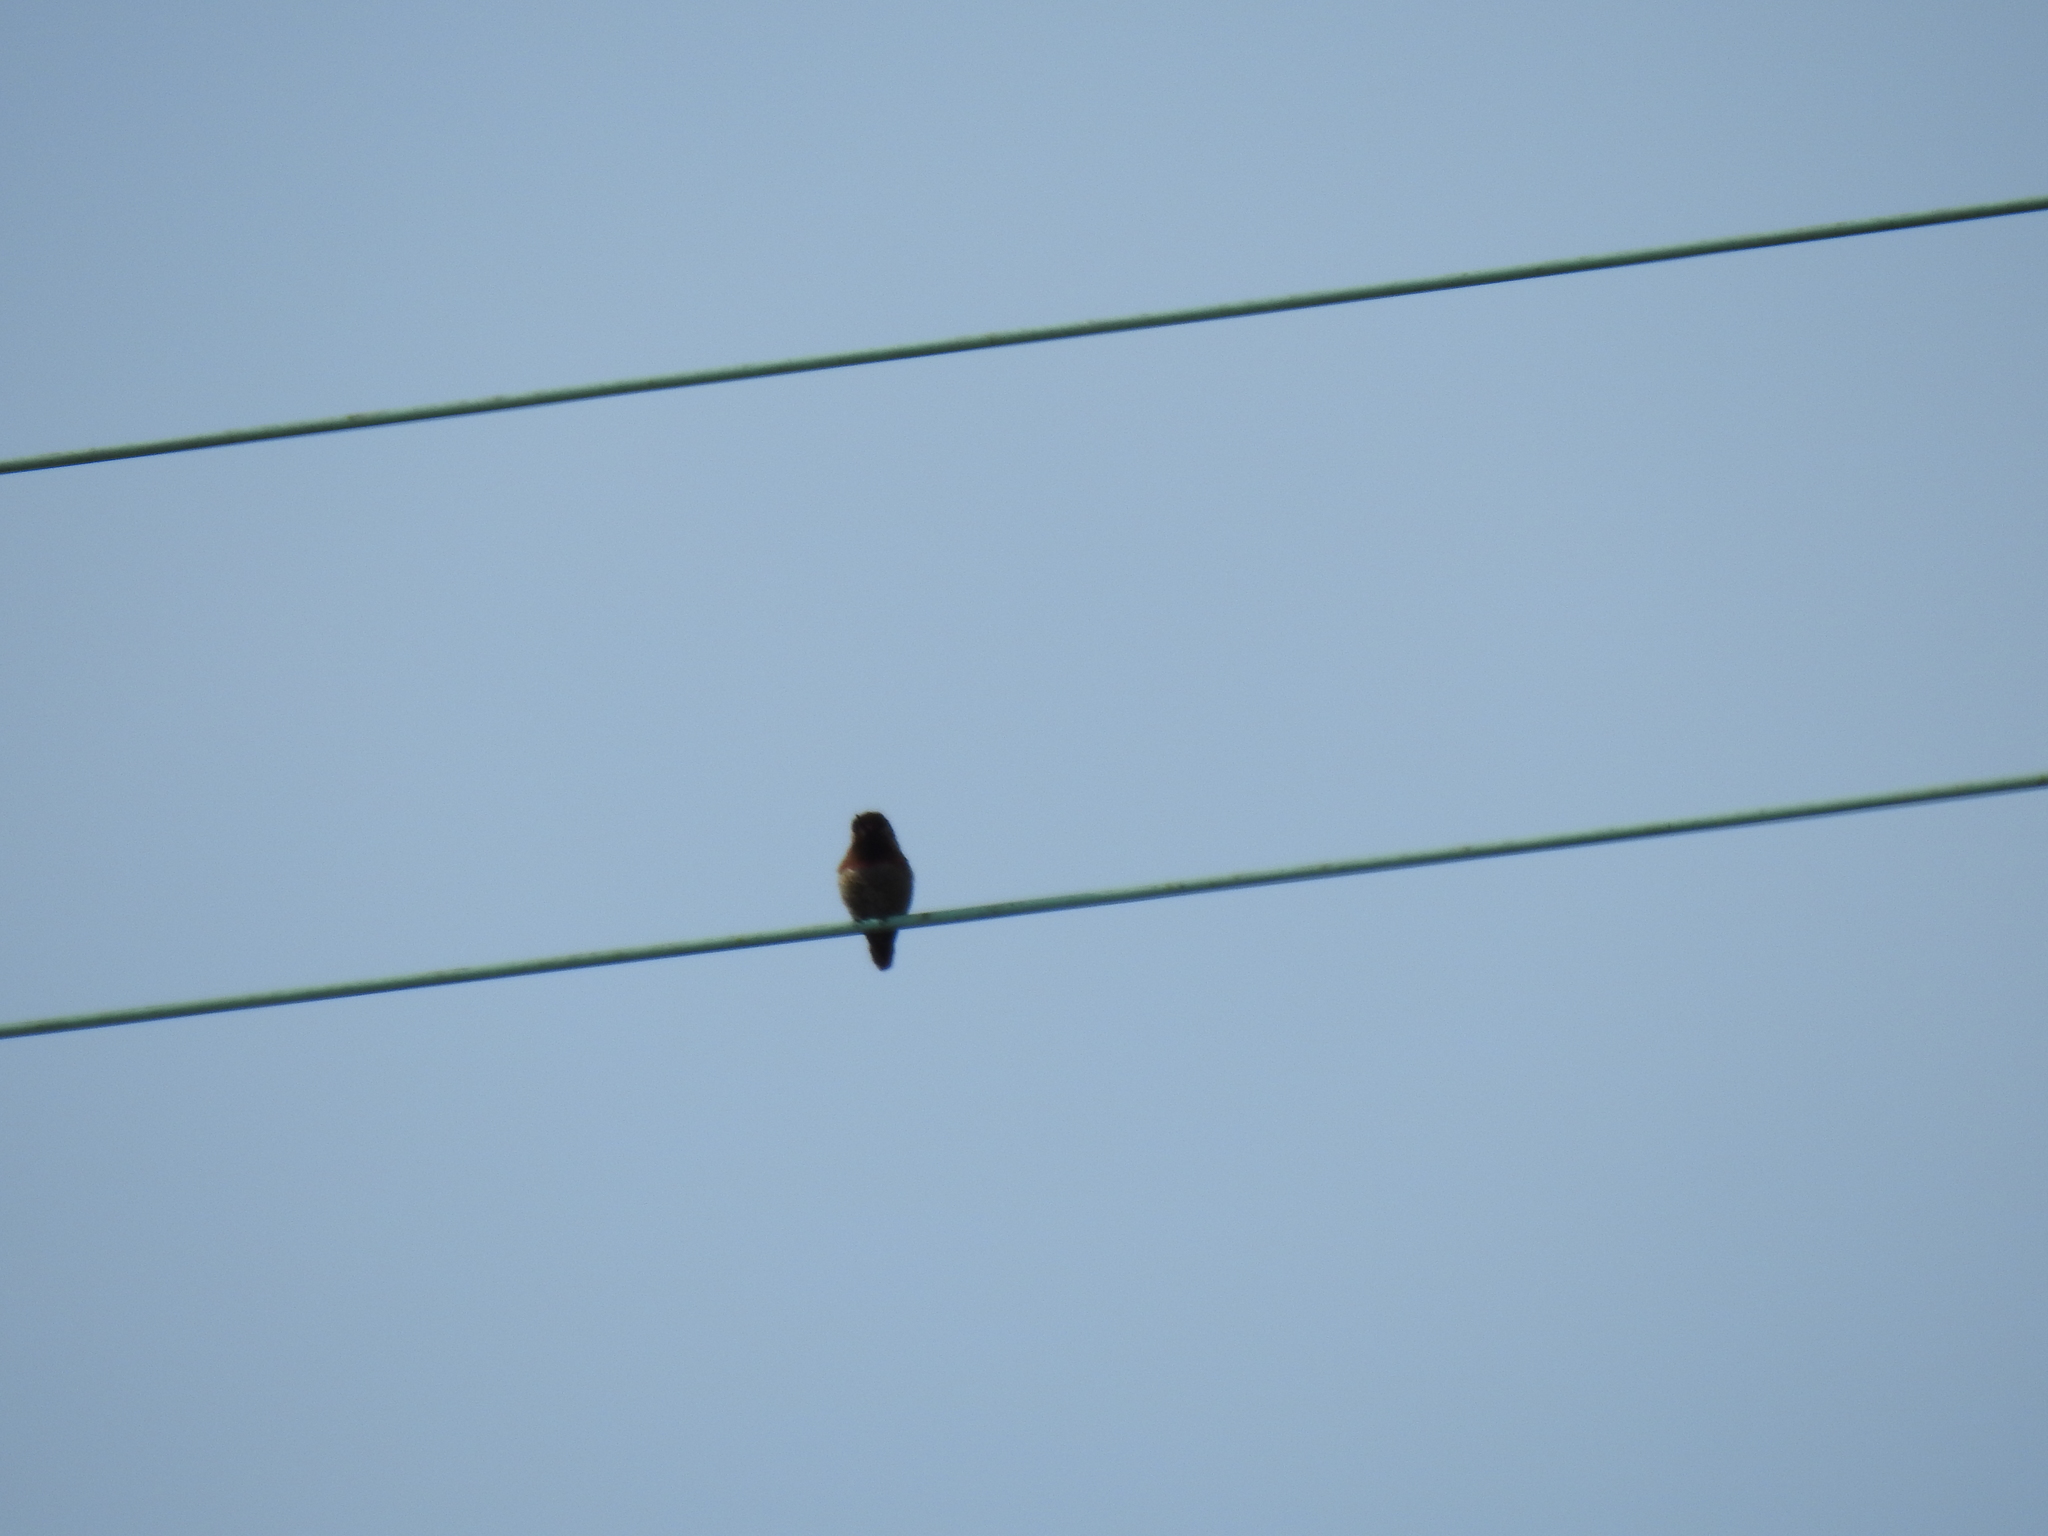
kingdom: Animalia
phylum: Chordata
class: Aves
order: Apodiformes
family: Trochilidae
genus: Calypte
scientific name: Calypte anna
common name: Anna's hummingbird
